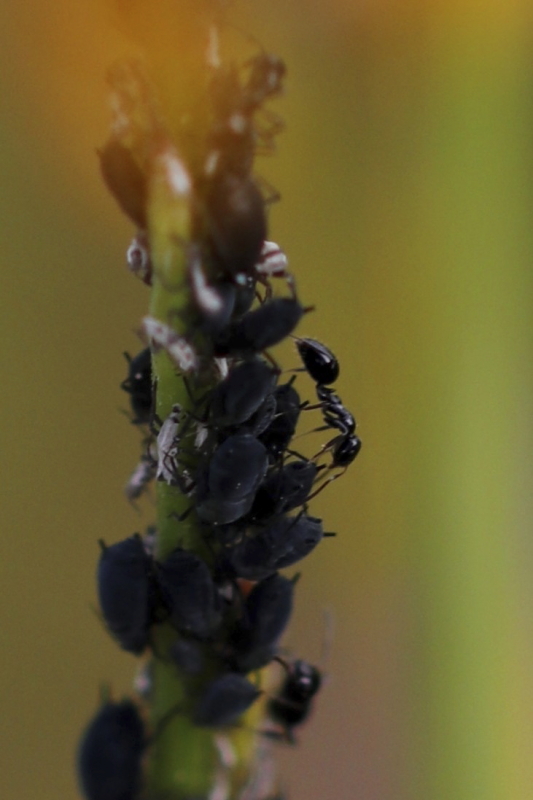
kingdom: Animalia
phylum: Arthropoda
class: Insecta
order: Hymenoptera
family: Formicidae
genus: Lepisiota
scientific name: Lepisiota capensis
